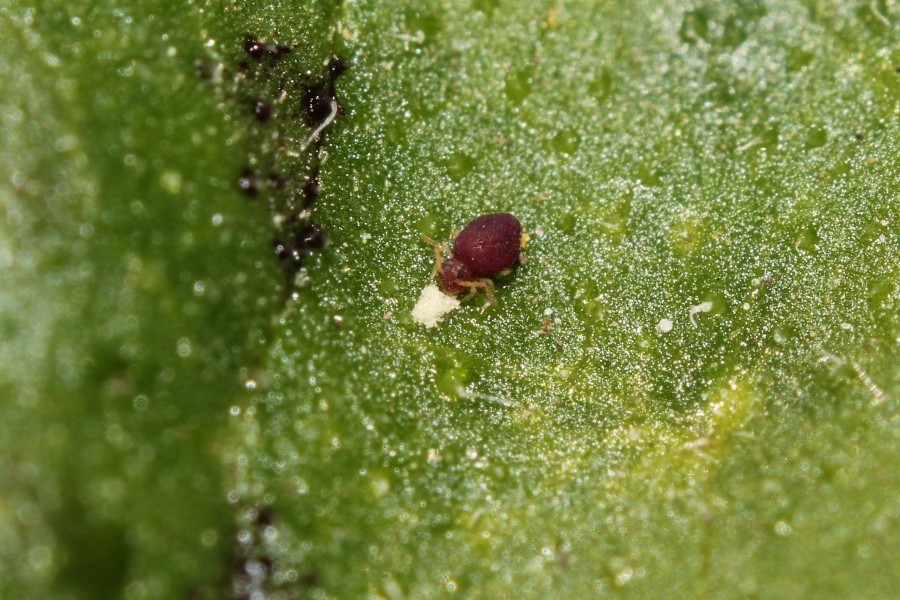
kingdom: Animalia
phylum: Arthropoda
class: Collembola
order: Symphypleona
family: Bourletiellidae
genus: Deuterosminthurus
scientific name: Deuterosminthurus pallipes
